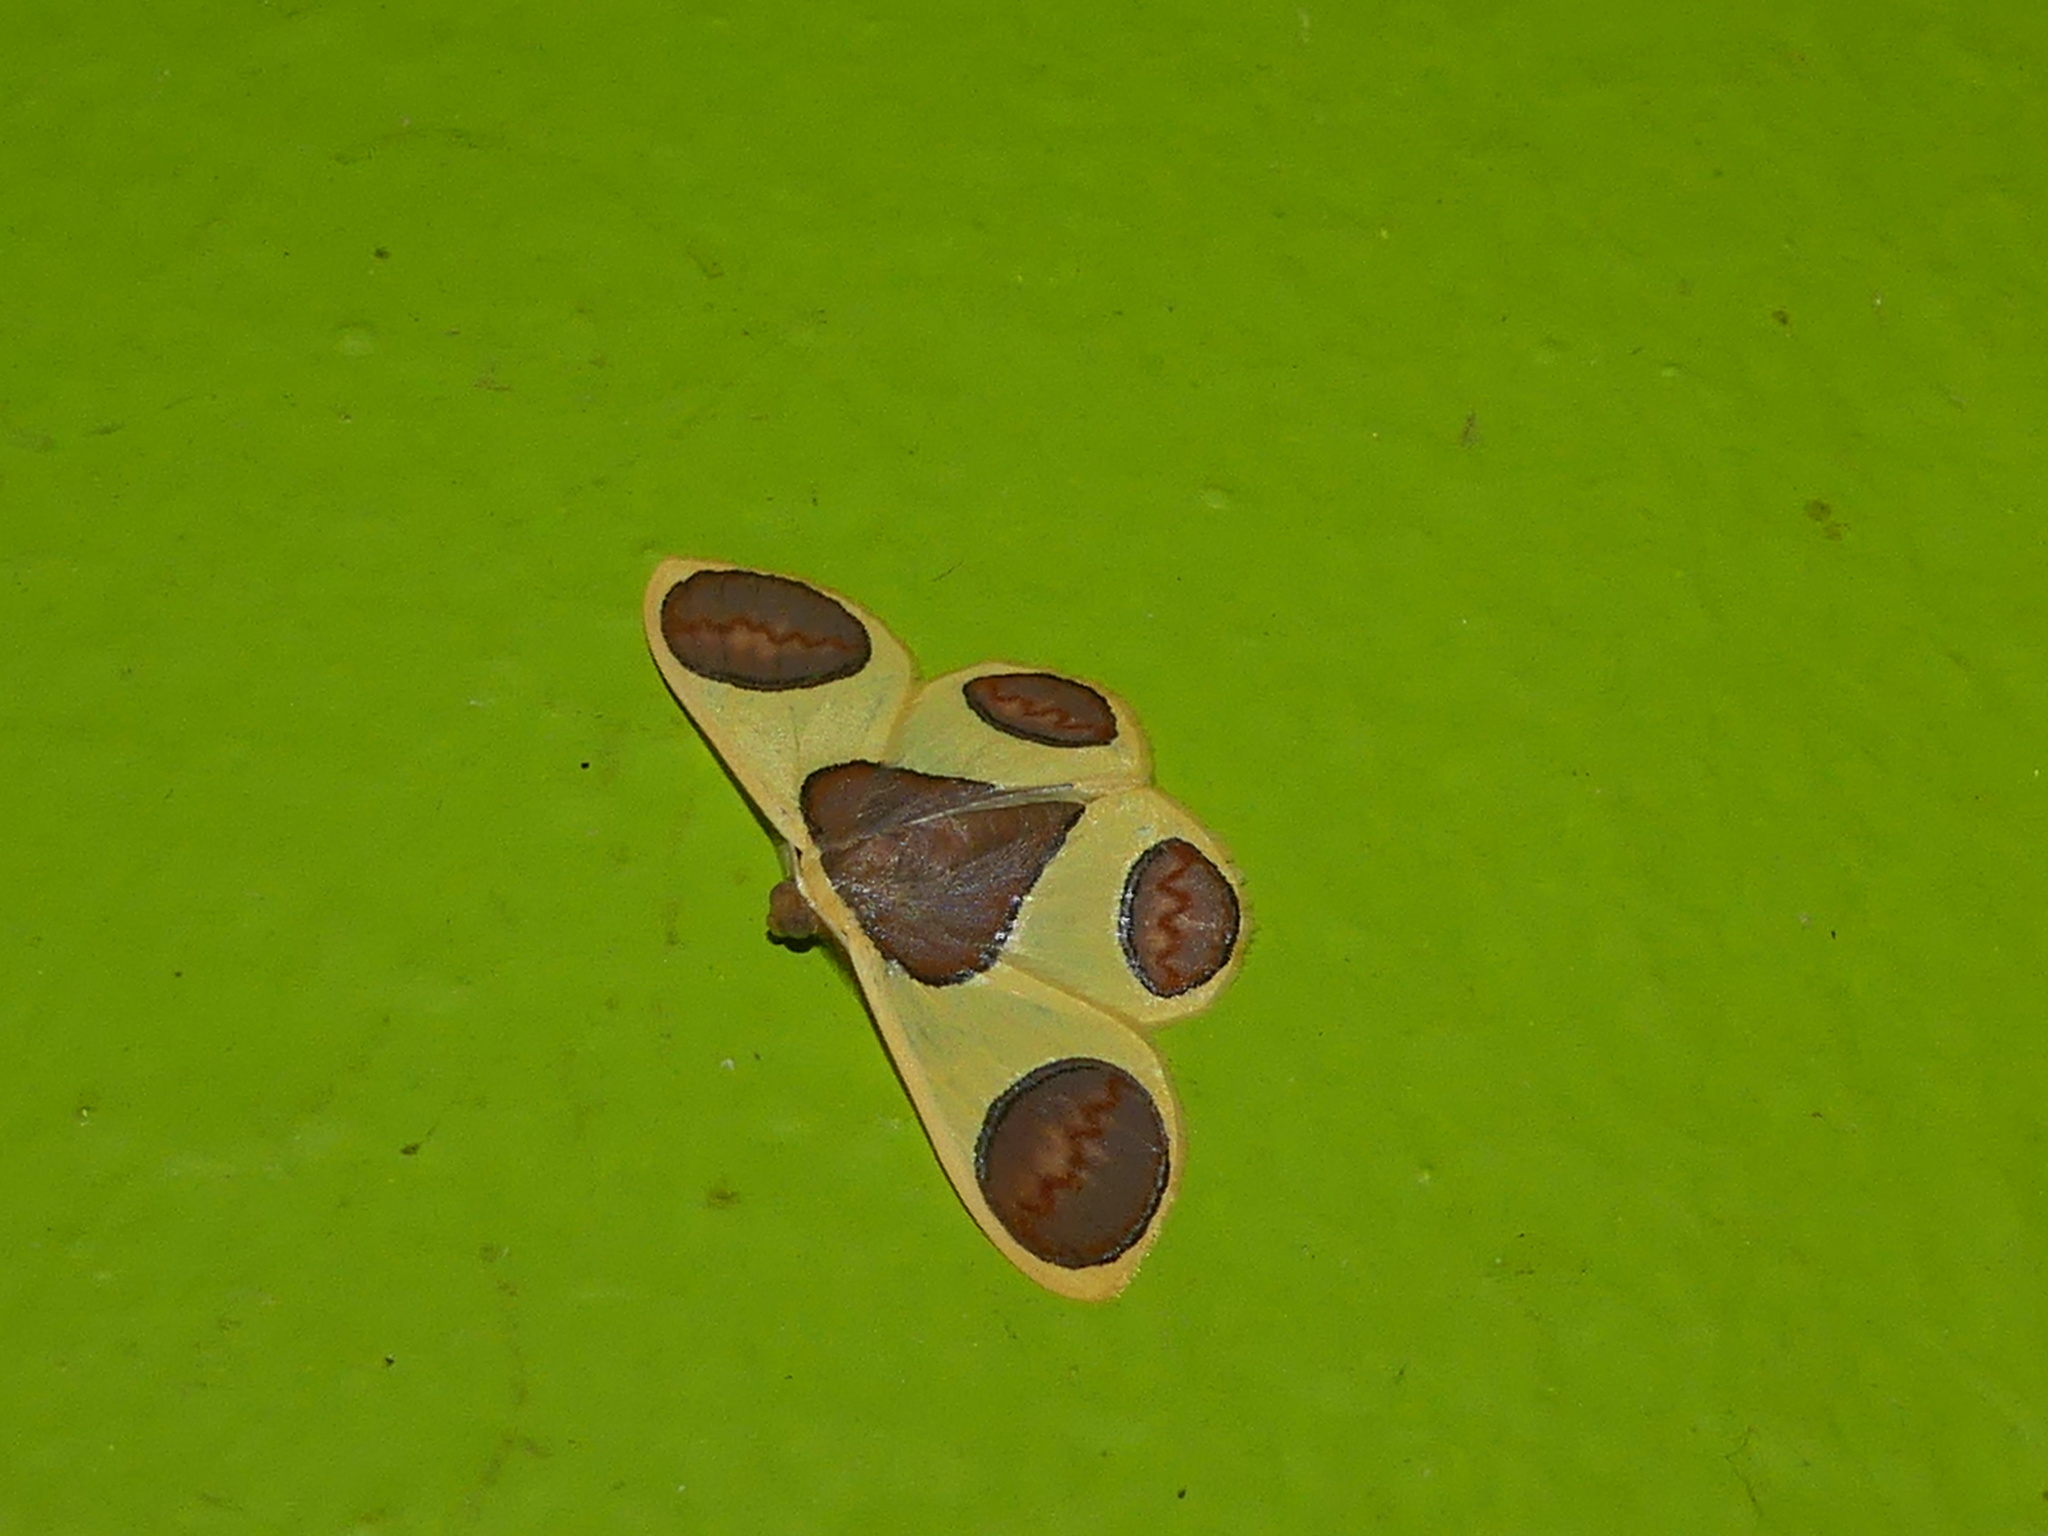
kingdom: Animalia
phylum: Arthropoda
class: Insecta
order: Lepidoptera
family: Geometridae
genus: Plutodes
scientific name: Plutodes flavescens
